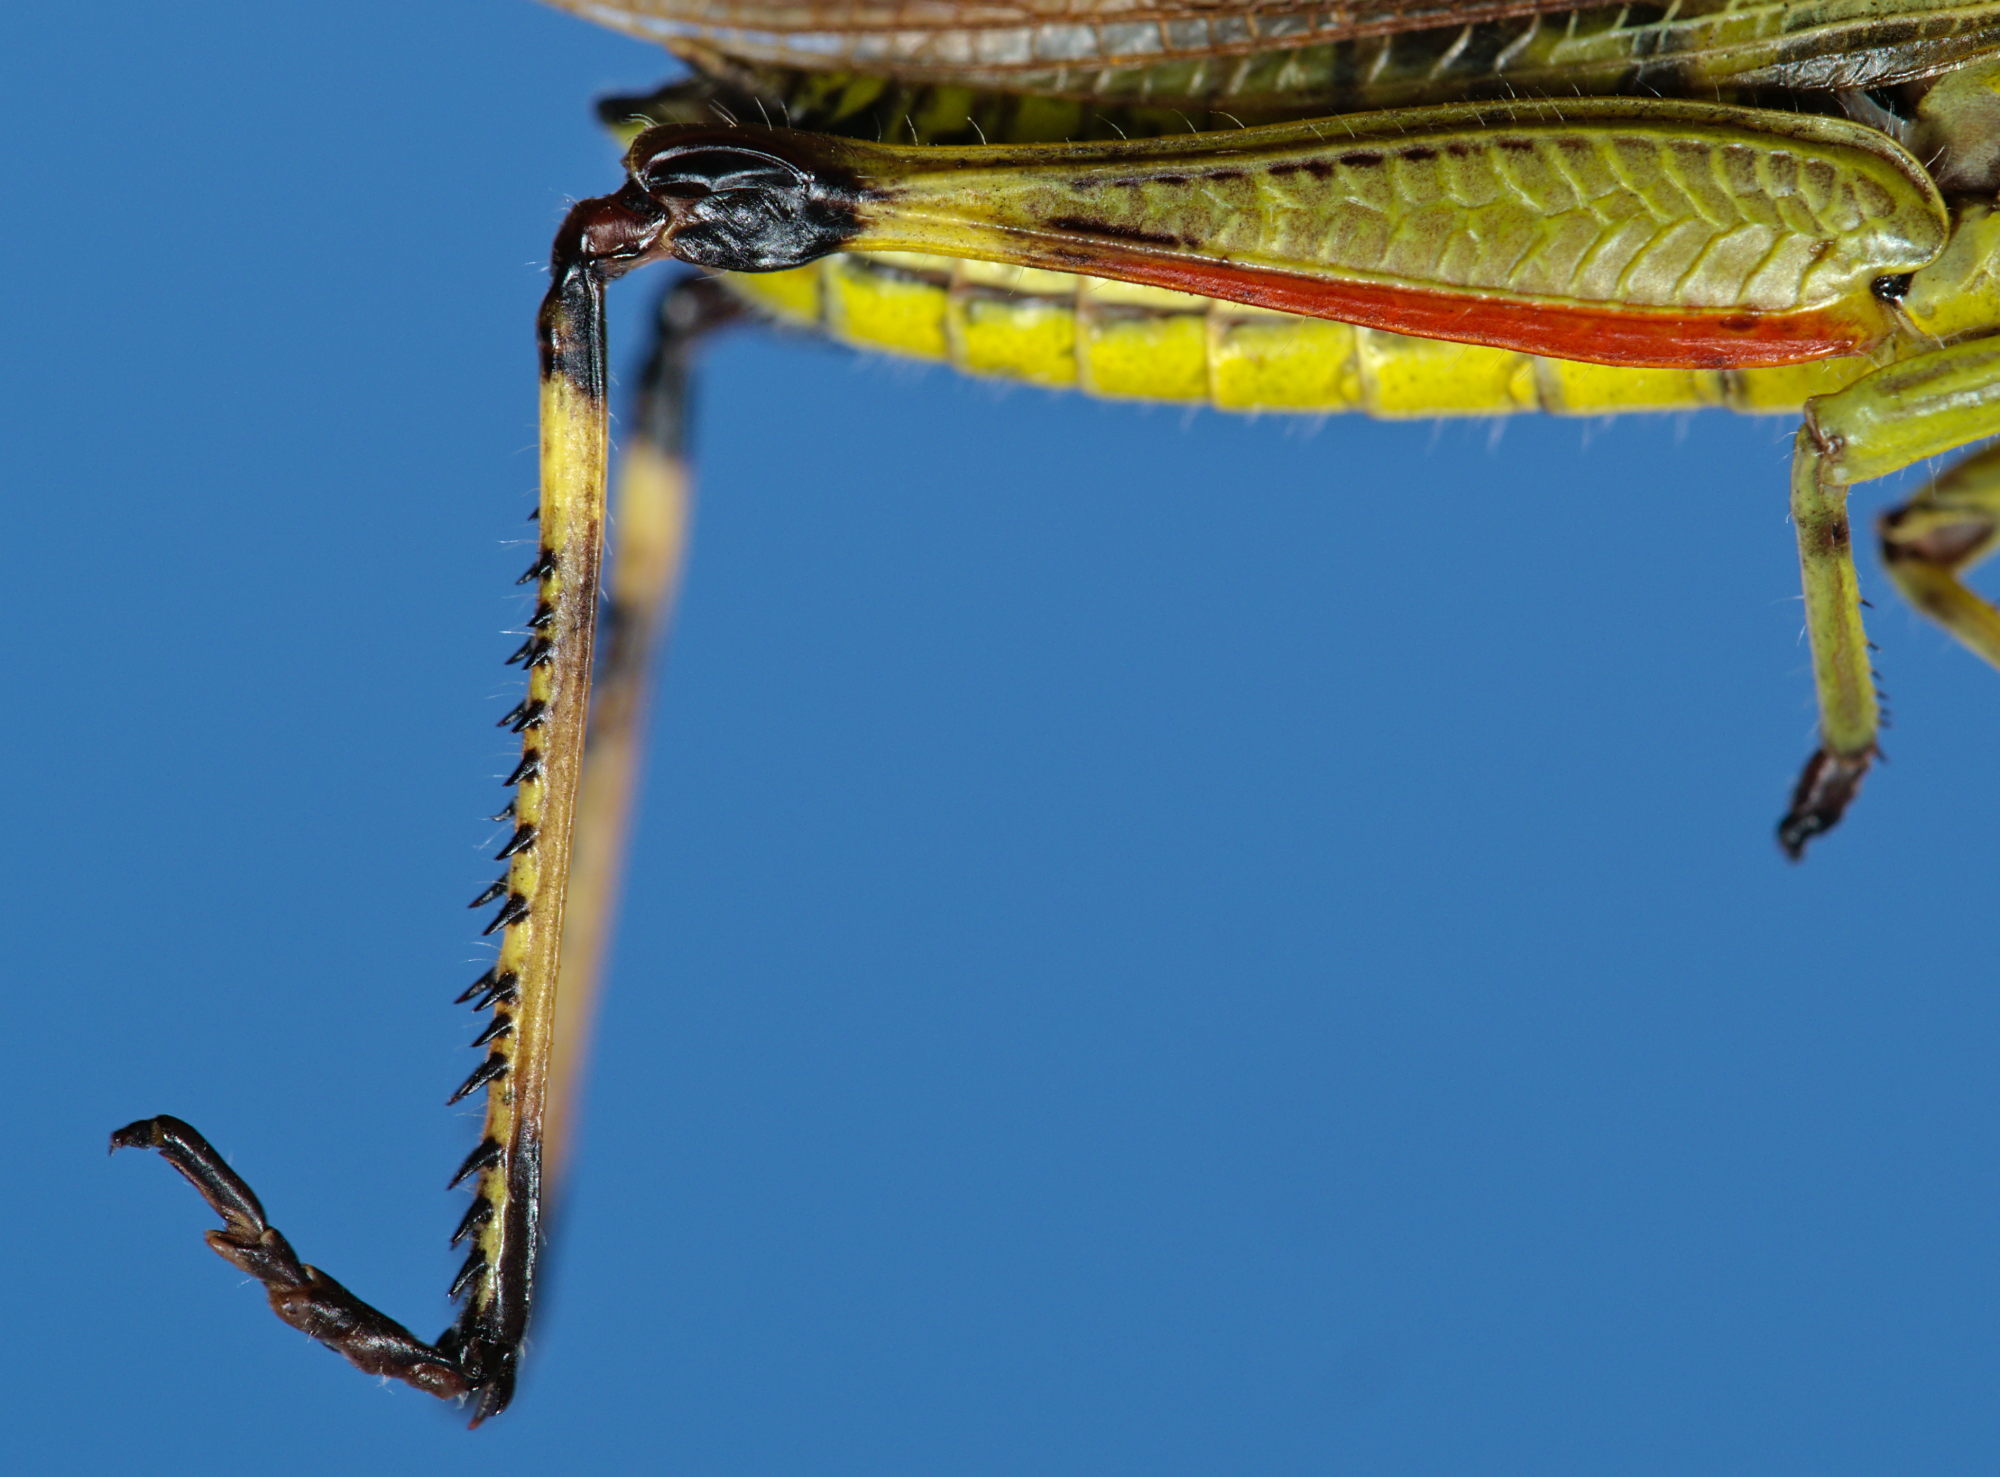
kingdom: Animalia
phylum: Arthropoda
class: Insecta
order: Orthoptera
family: Acrididae
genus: Stethophyma
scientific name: Stethophyma grossum
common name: Large marsh grasshopper
